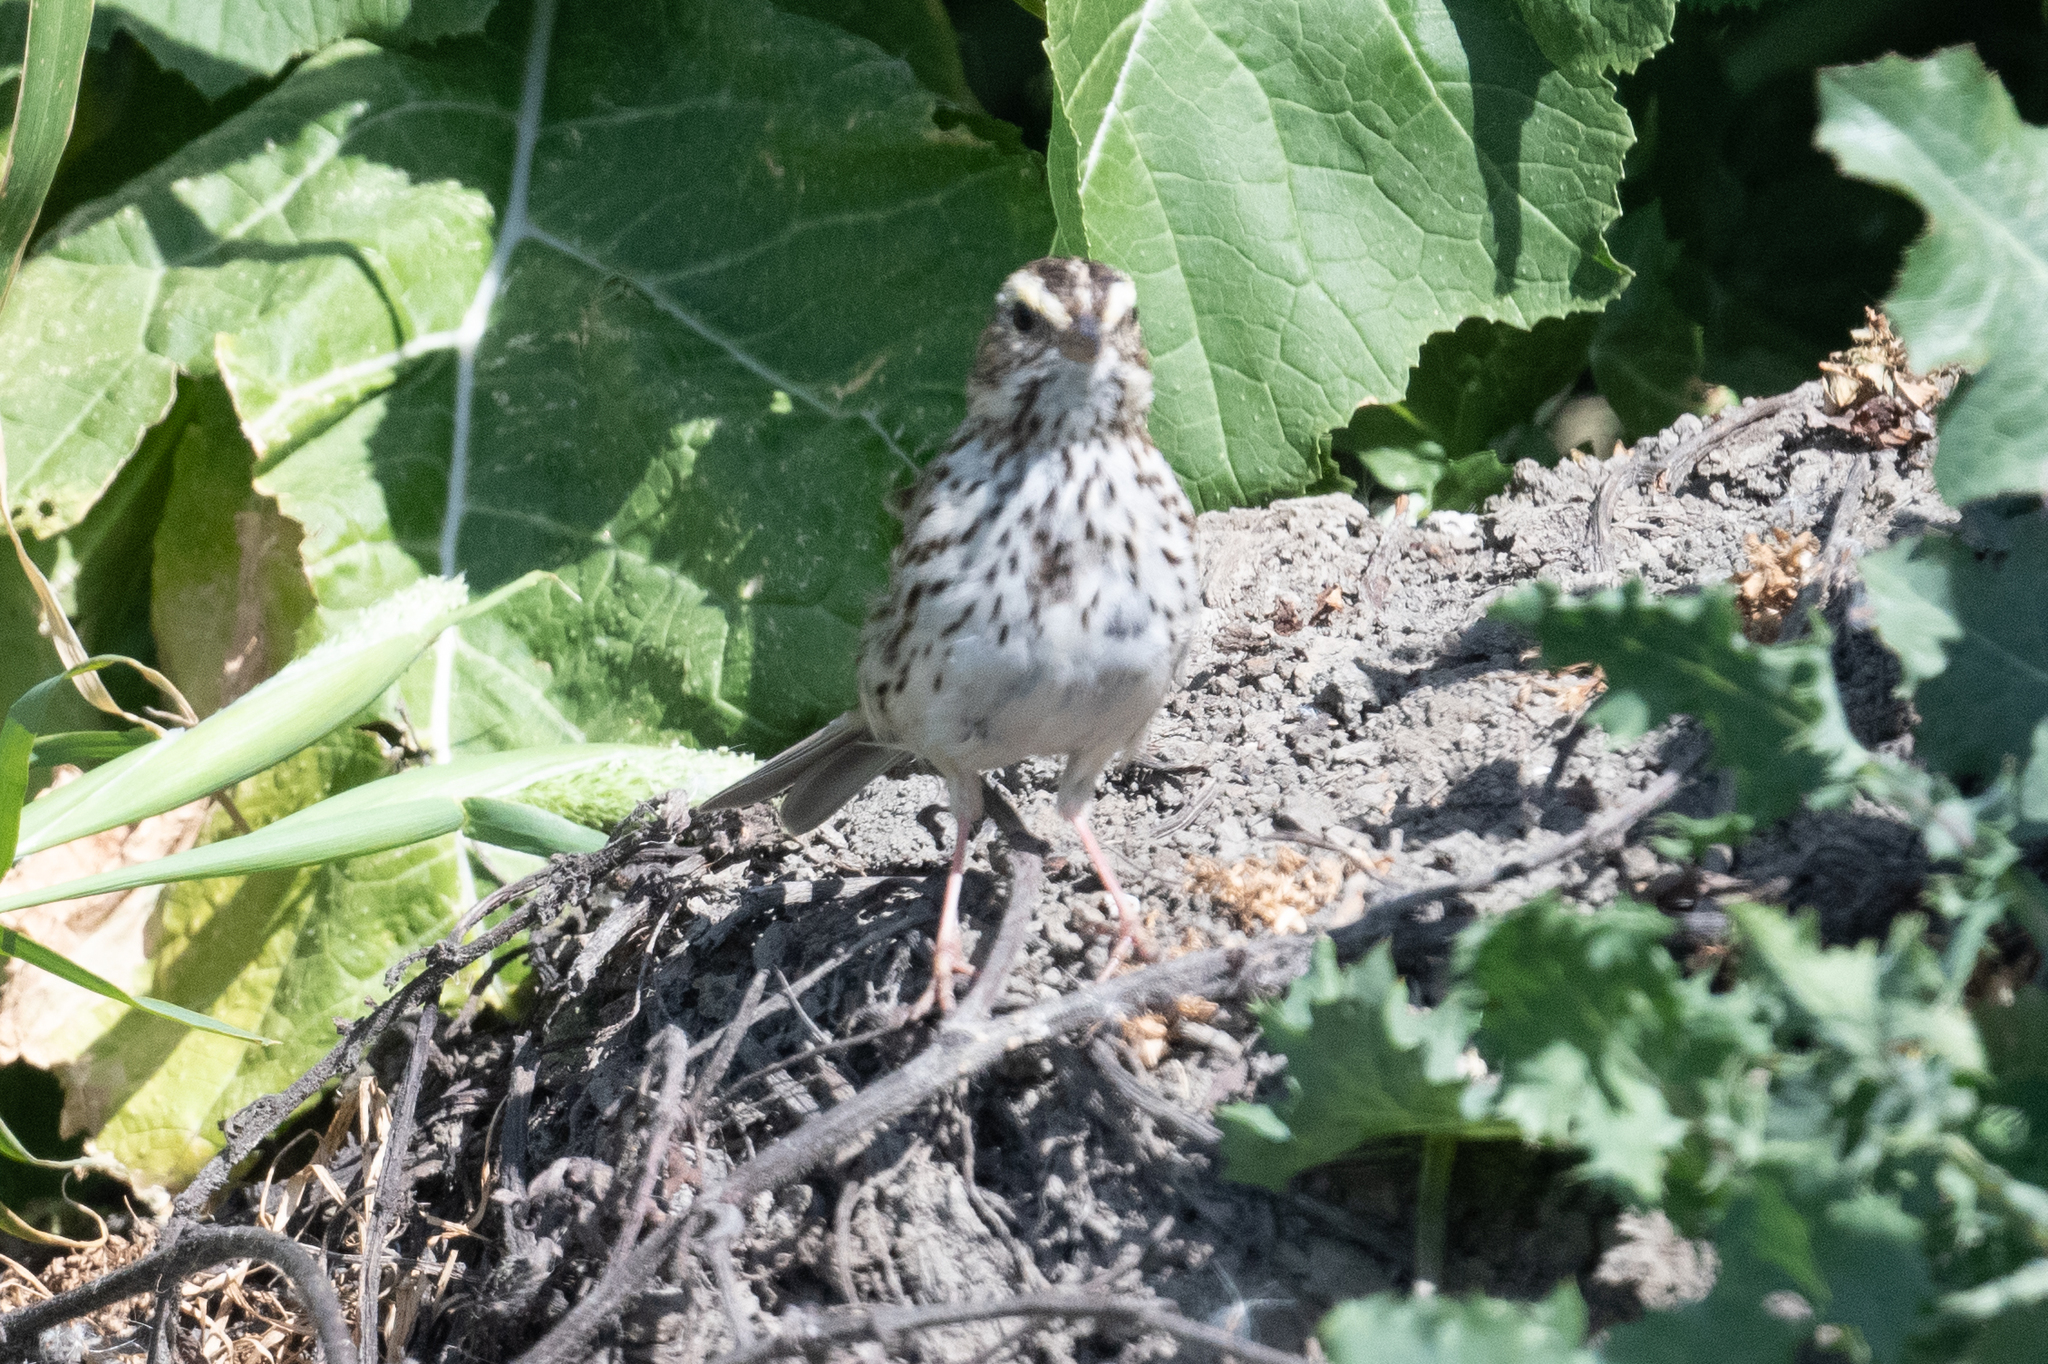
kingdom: Animalia
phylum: Chordata
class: Aves
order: Passeriformes
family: Passerellidae
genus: Passerculus
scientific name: Passerculus sandwichensis
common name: Savannah sparrow
